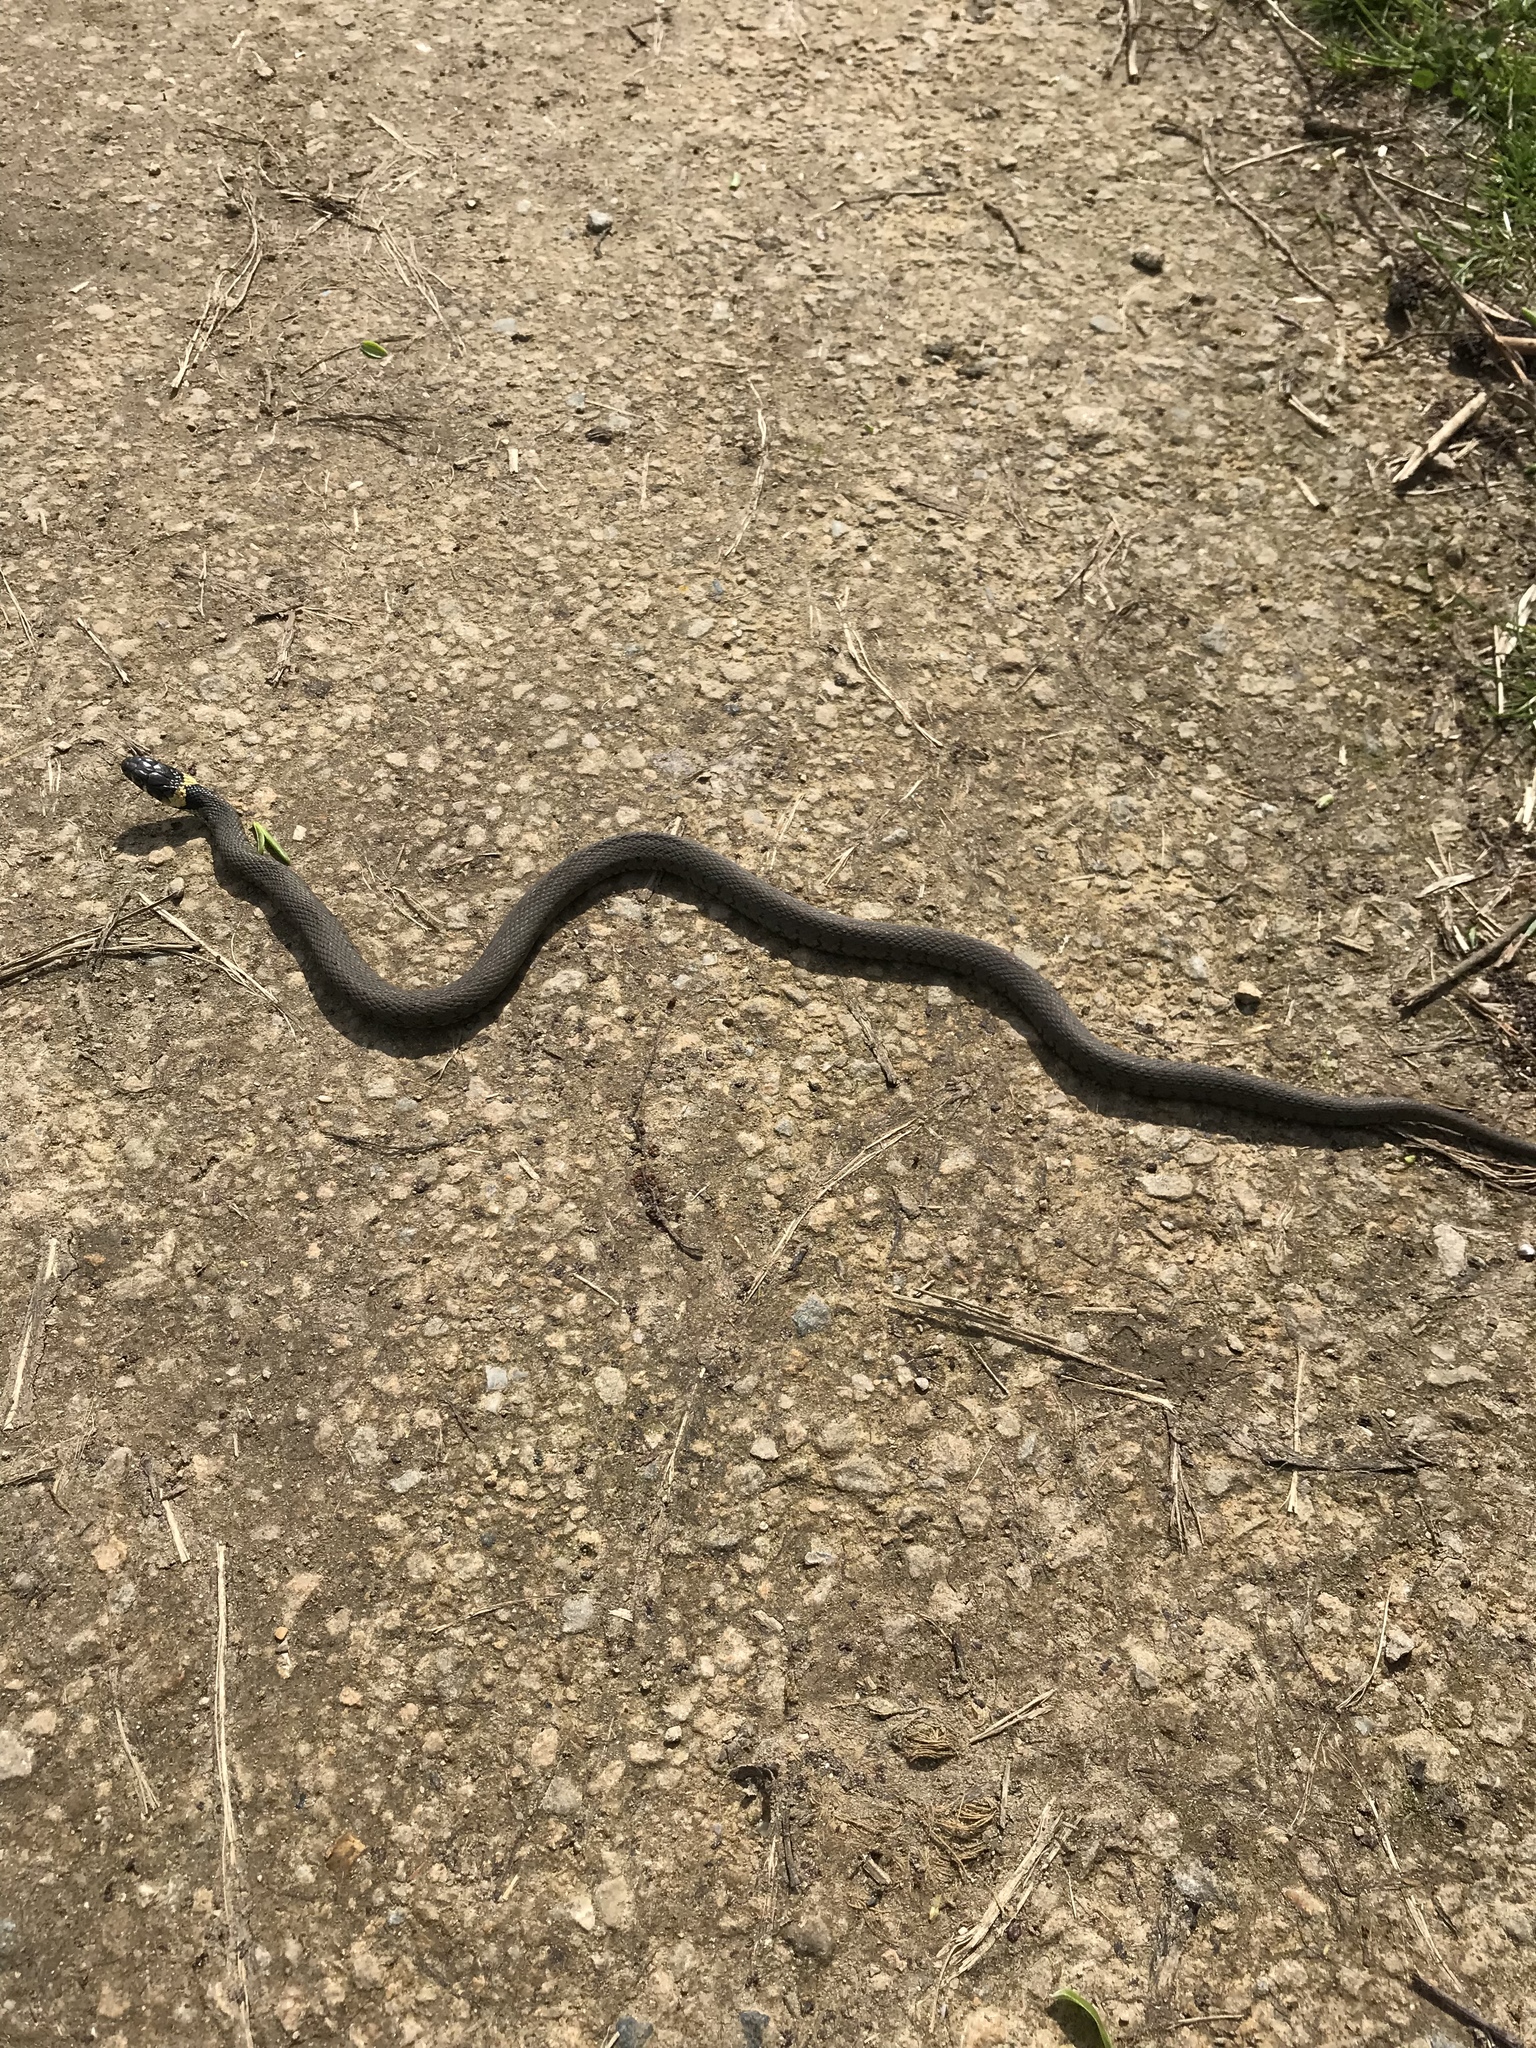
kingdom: Animalia
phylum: Chordata
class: Squamata
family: Colubridae
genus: Natrix
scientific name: Natrix helvetica
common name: Banded grass snake
